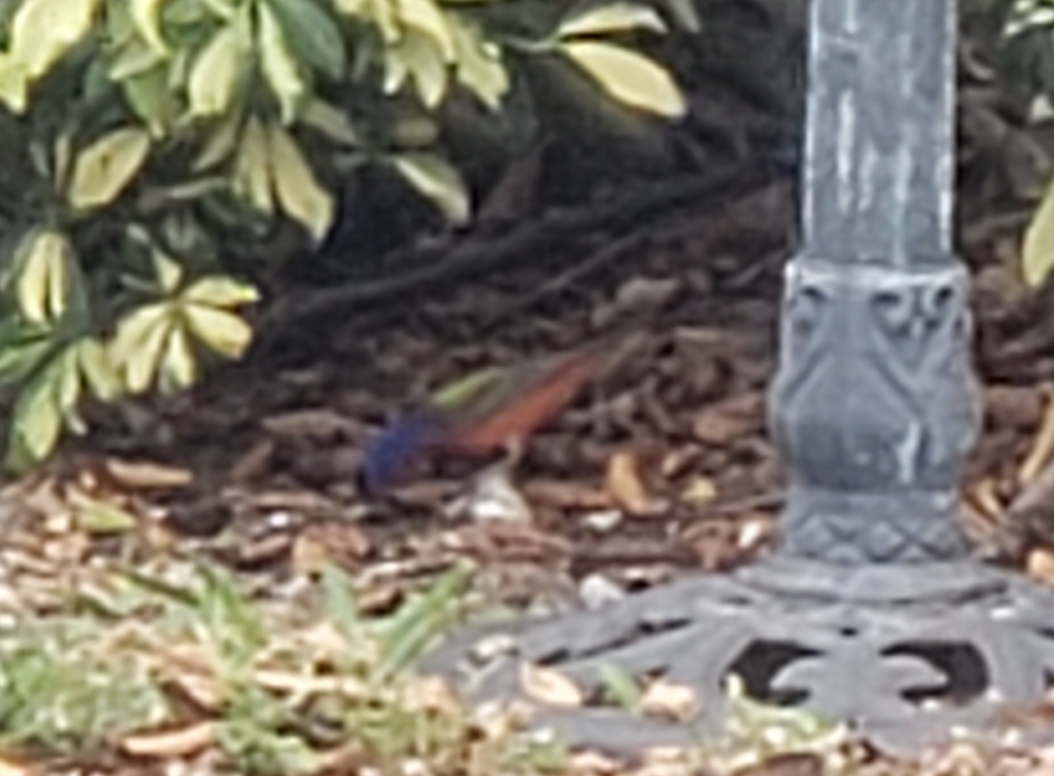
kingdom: Animalia
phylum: Chordata
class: Aves
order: Passeriformes
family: Cardinalidae
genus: Passerina
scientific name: Passerina ciris
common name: Painted bunting
